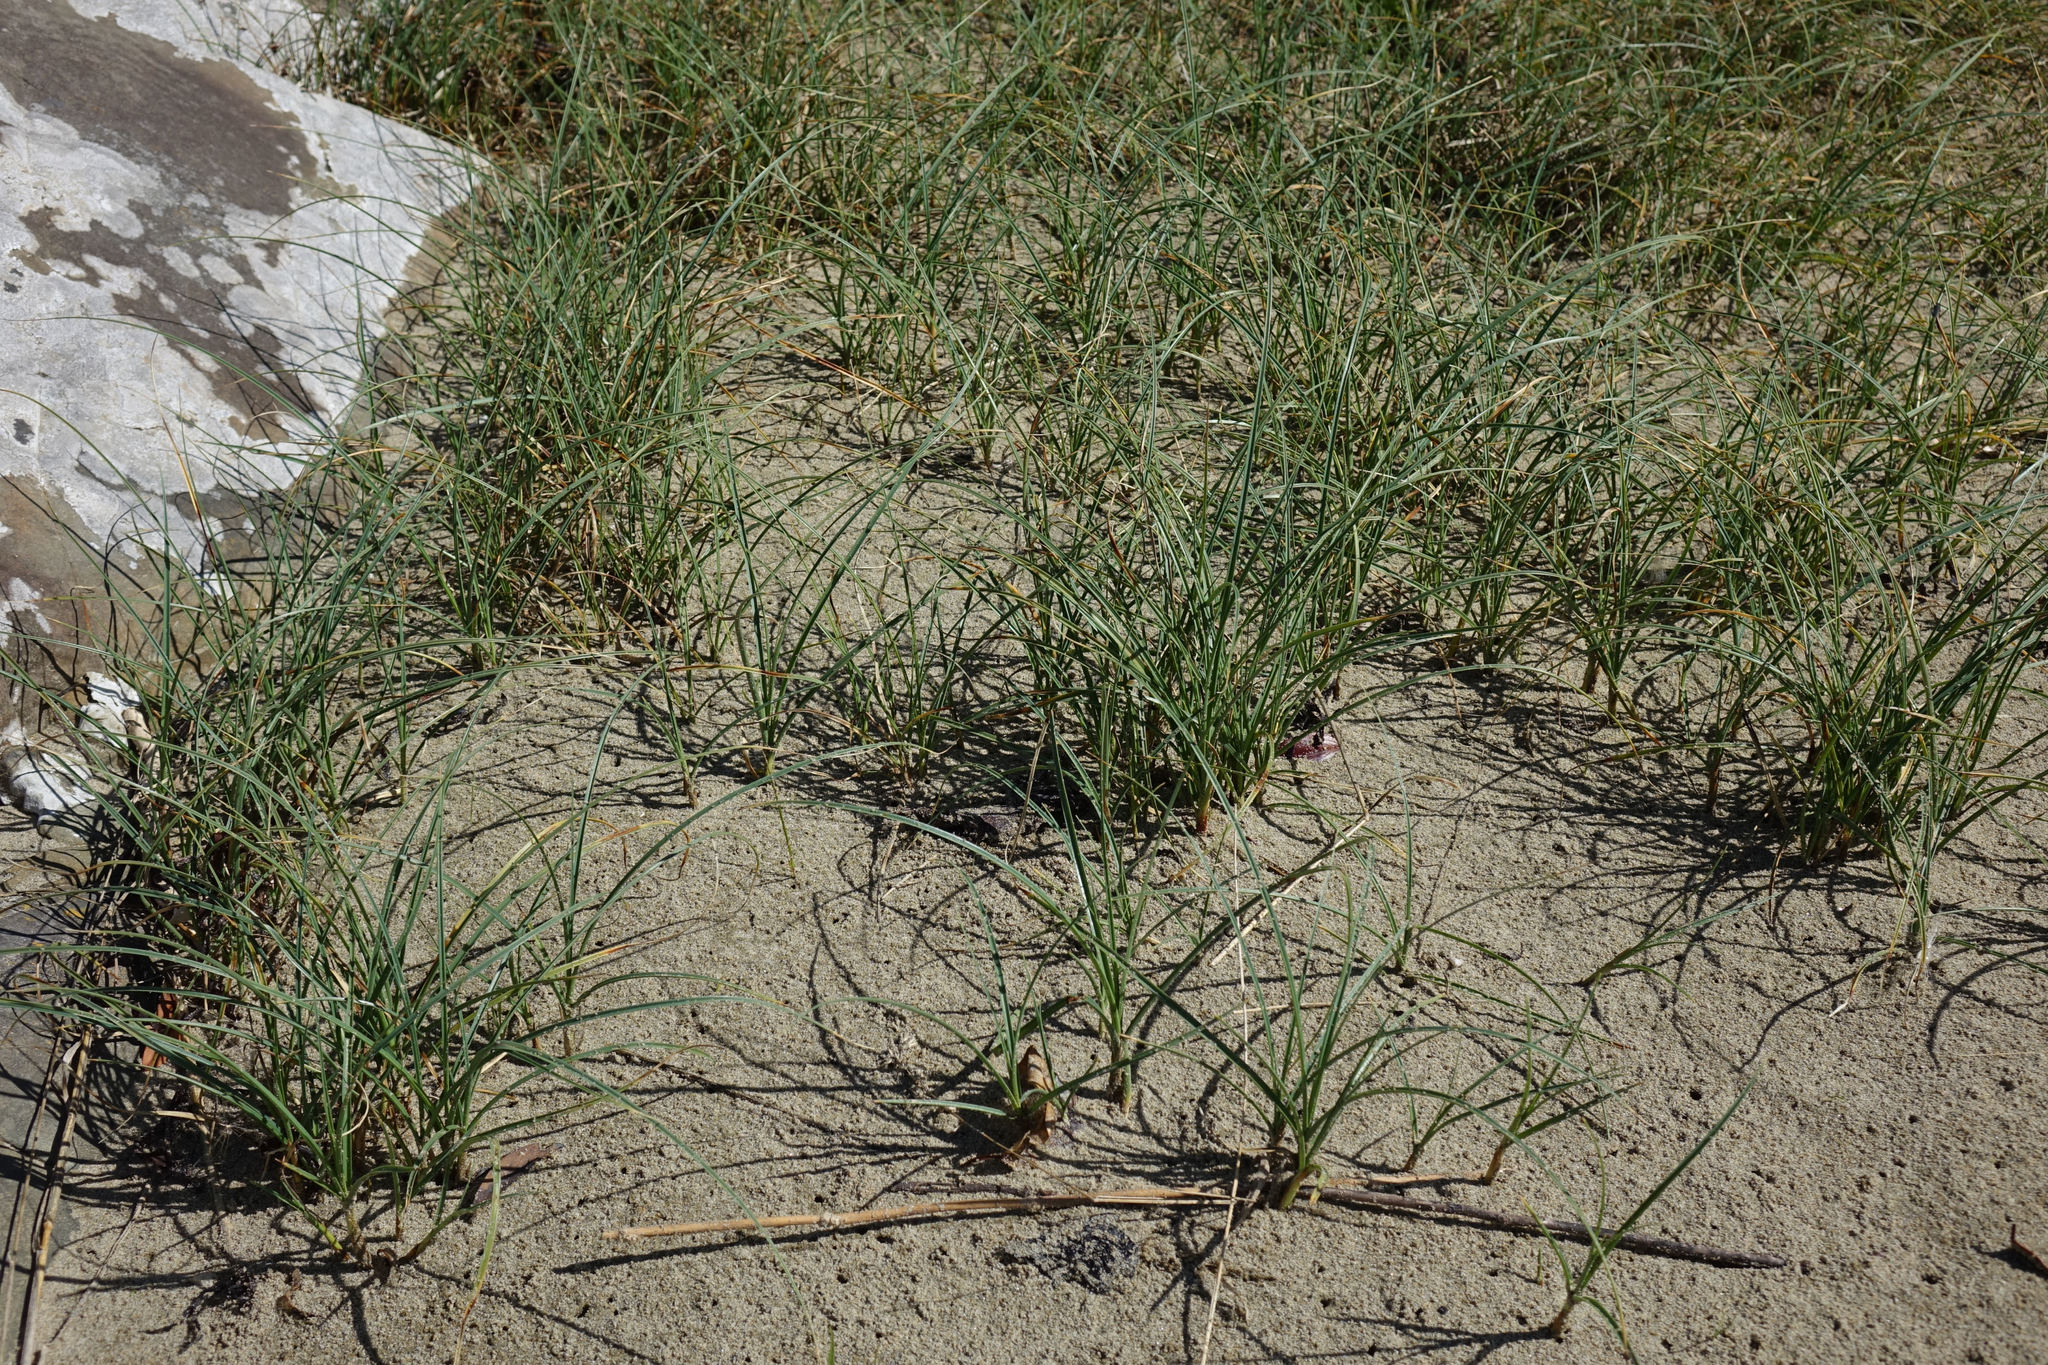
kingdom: Plantae
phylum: Tracheophyta
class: Liliopsida
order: Poales
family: Cyperaceae
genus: Carex
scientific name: Carex pumila
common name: Dwarf sedge
